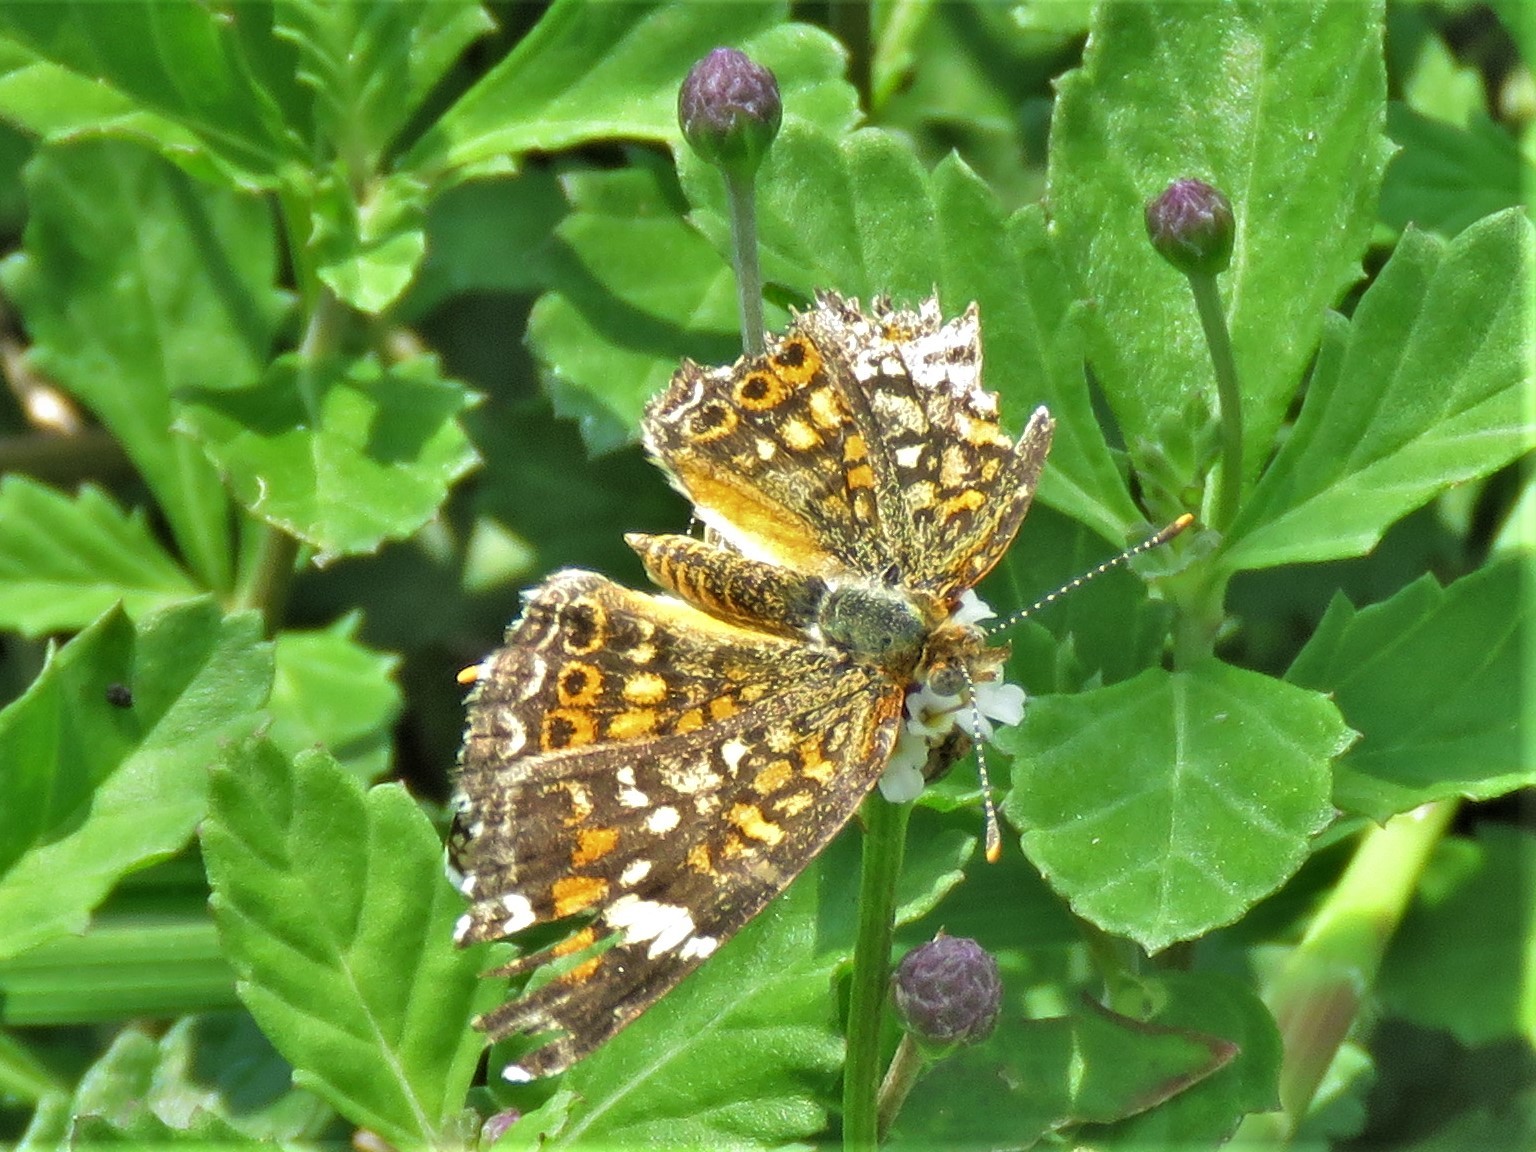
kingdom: Animalia
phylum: Arthropoda
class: Insecta
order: Lepidoptera
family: Nymphalidae
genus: Phyciodes
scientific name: Phyciodes phaon
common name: Phaon crescent
